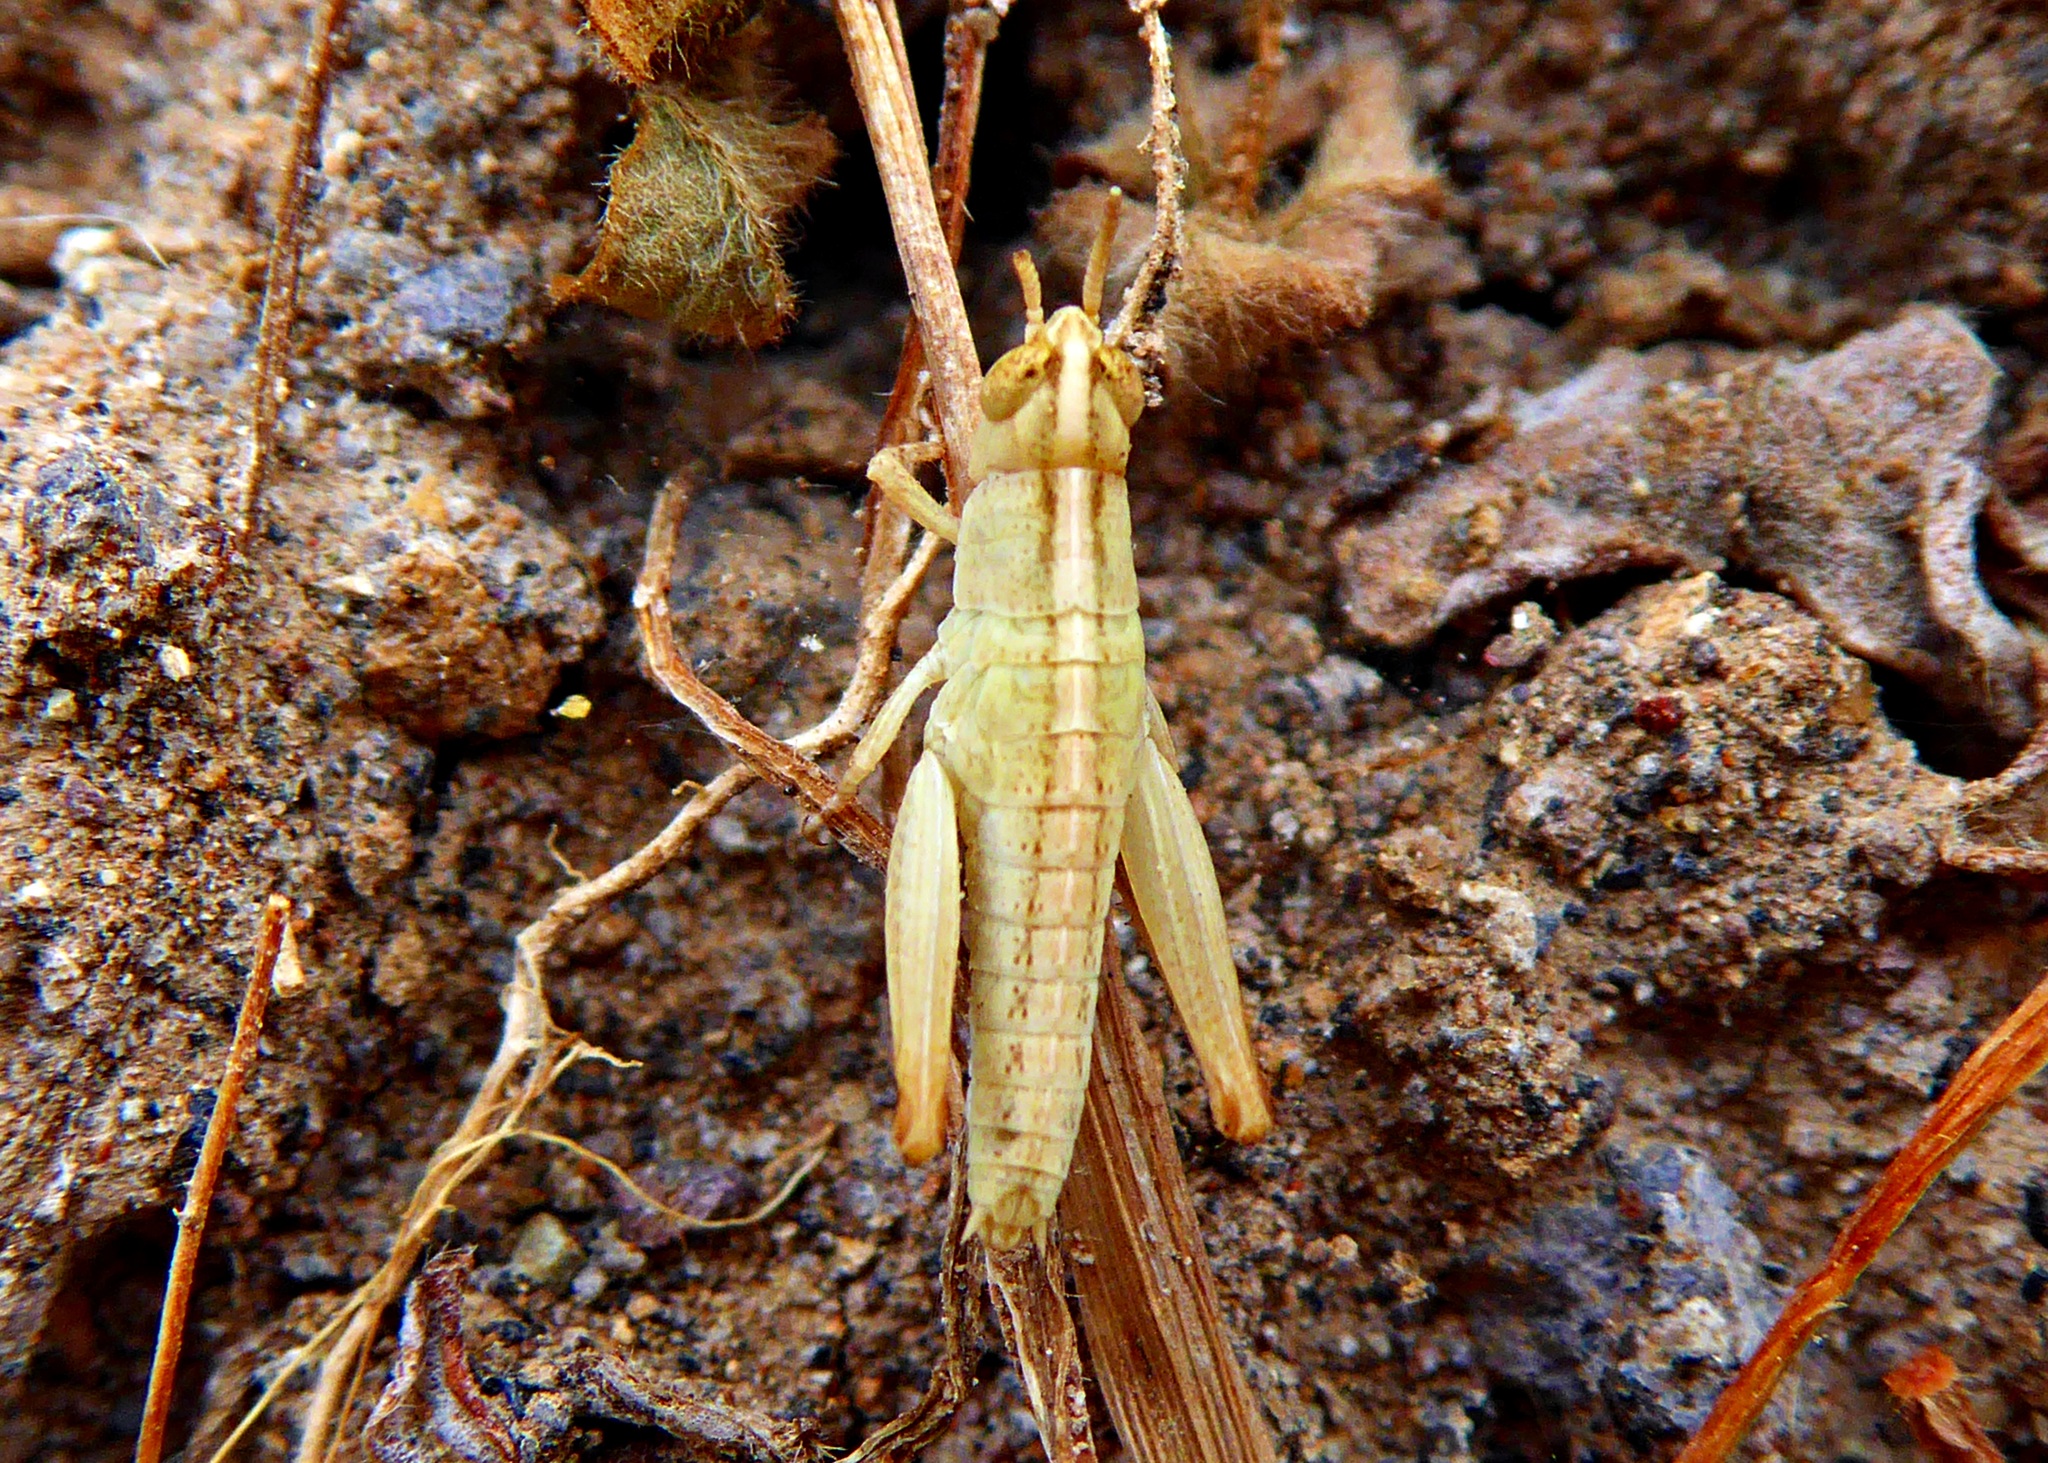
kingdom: Animalia
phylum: Arthropoda
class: Insecta
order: Orthoptera
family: Acrididae
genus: Aiolopus
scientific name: Aiolopus thalassinus
